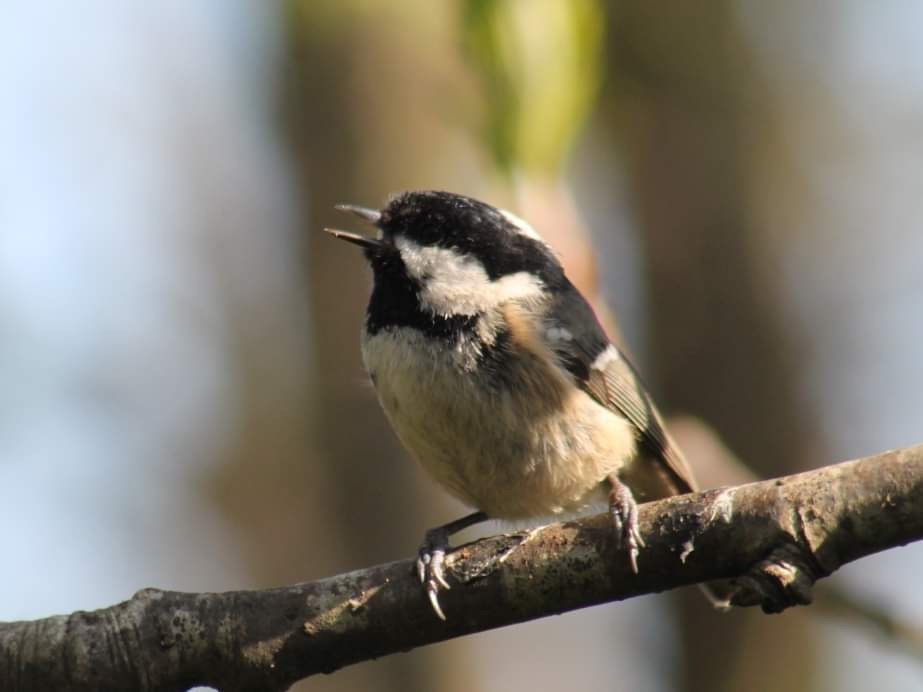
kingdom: Animalia
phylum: Chordata
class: Aves
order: Passeriformes
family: Paridae
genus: Periparus
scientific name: Periparus ater
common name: Coal tit
